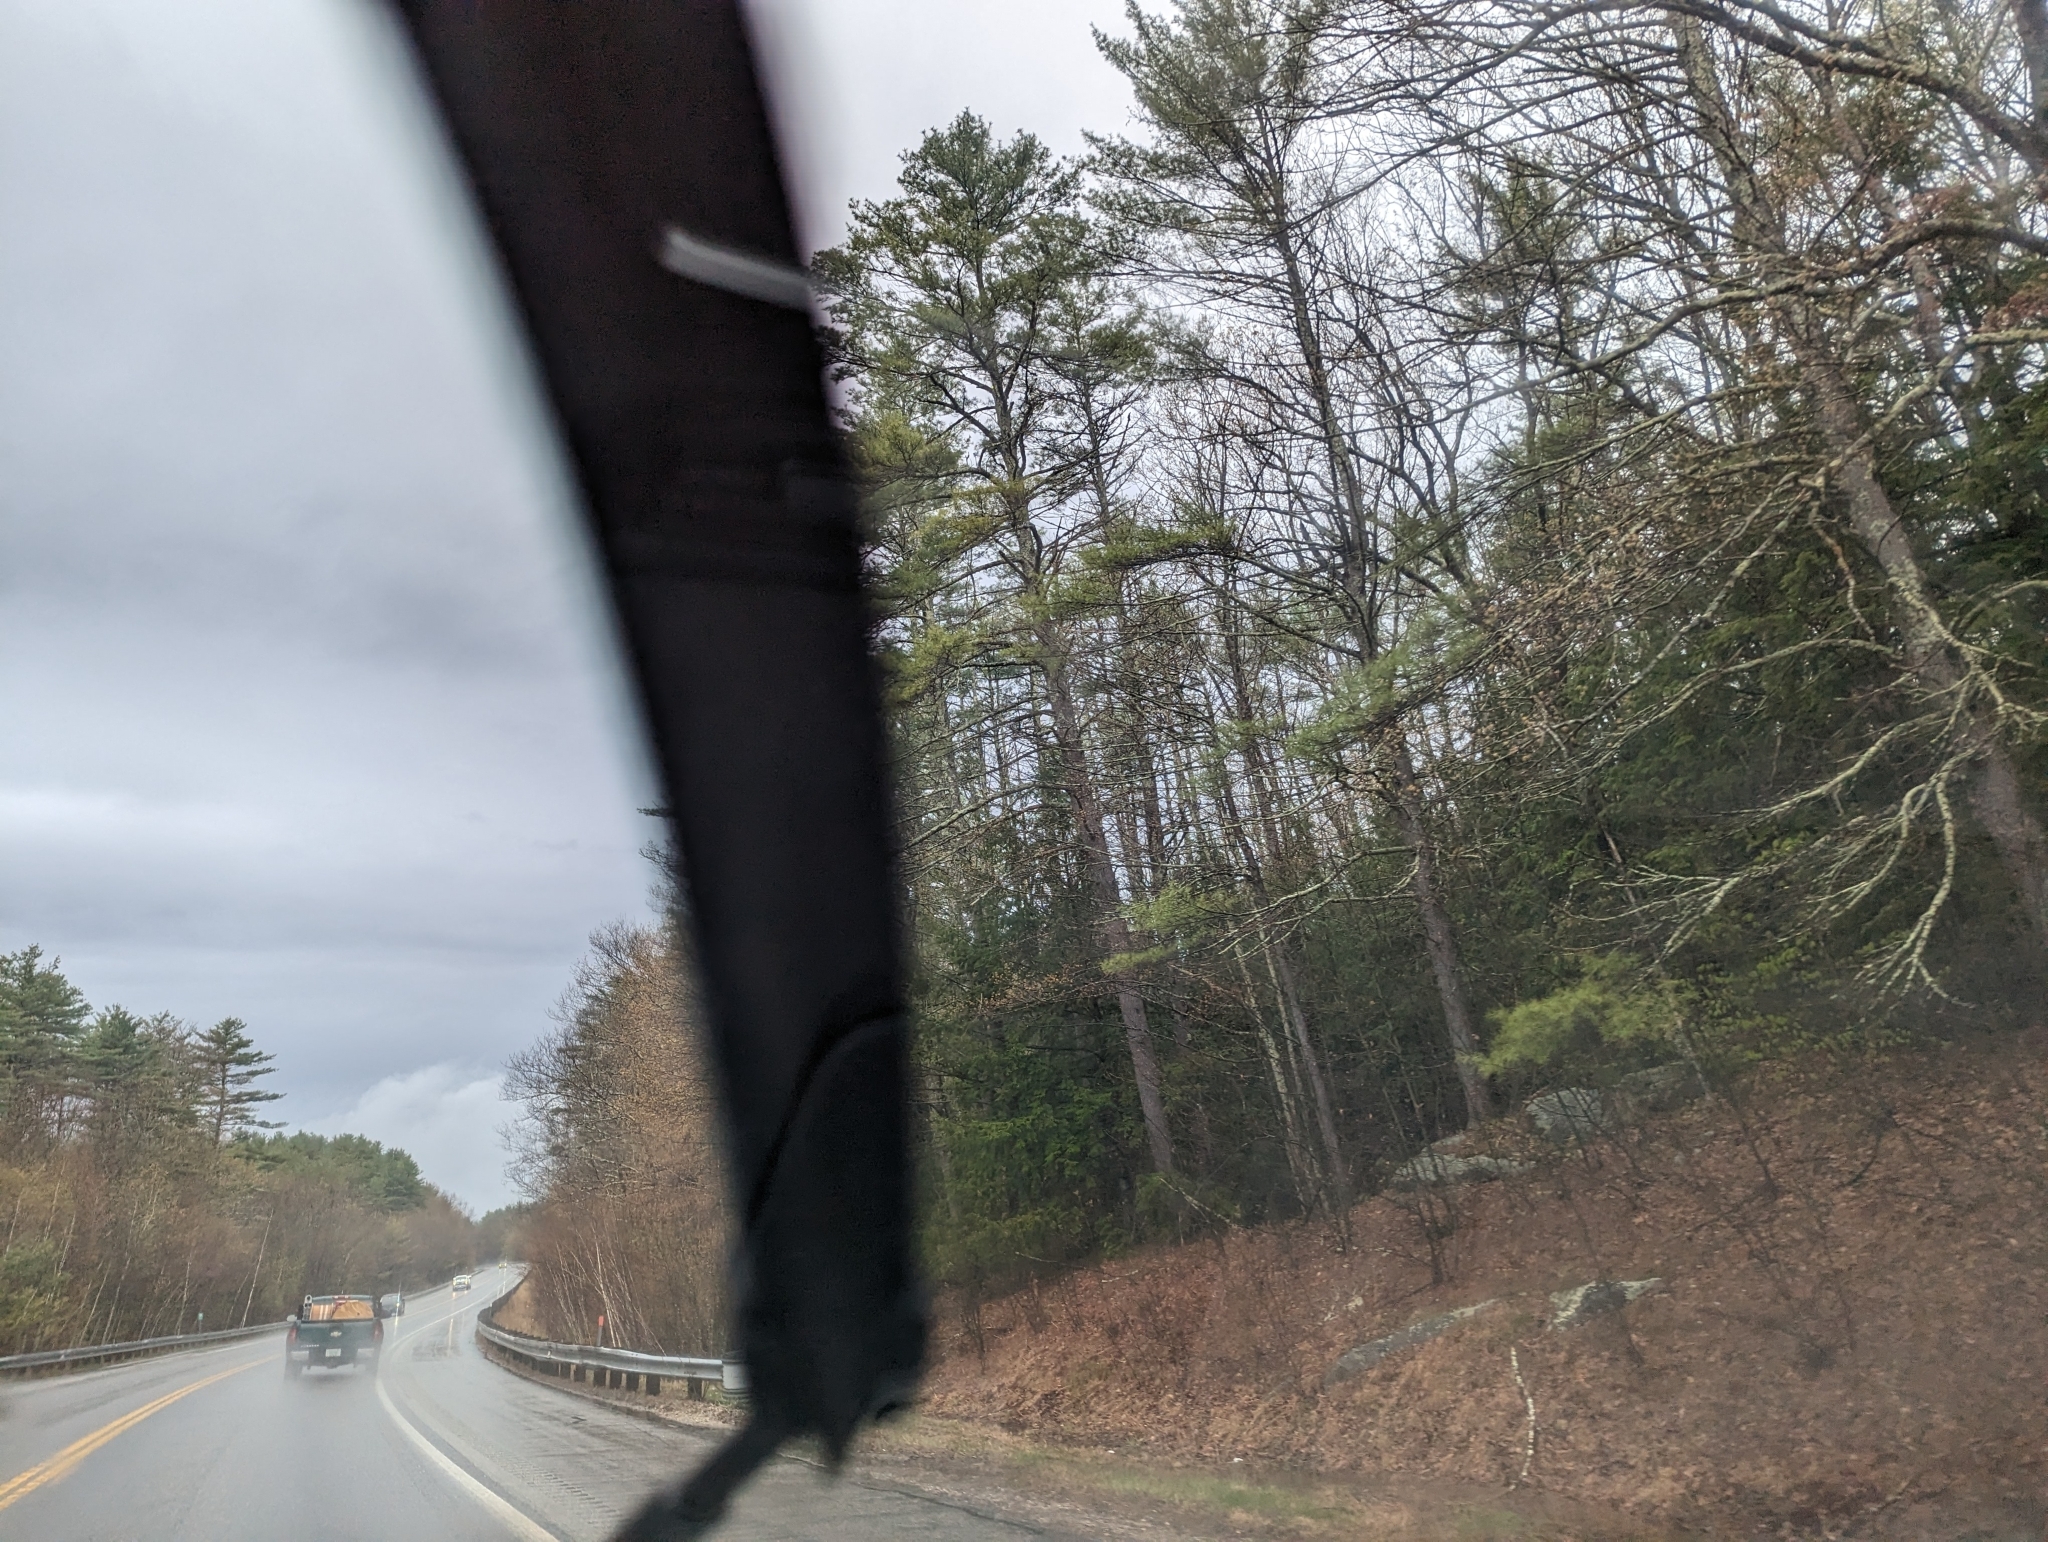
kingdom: Plantae
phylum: Tracheophyta
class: Pinopsida
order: Pinales
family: Pinaceae
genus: Pinus
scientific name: Pinus strobus
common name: Weymouth pine
